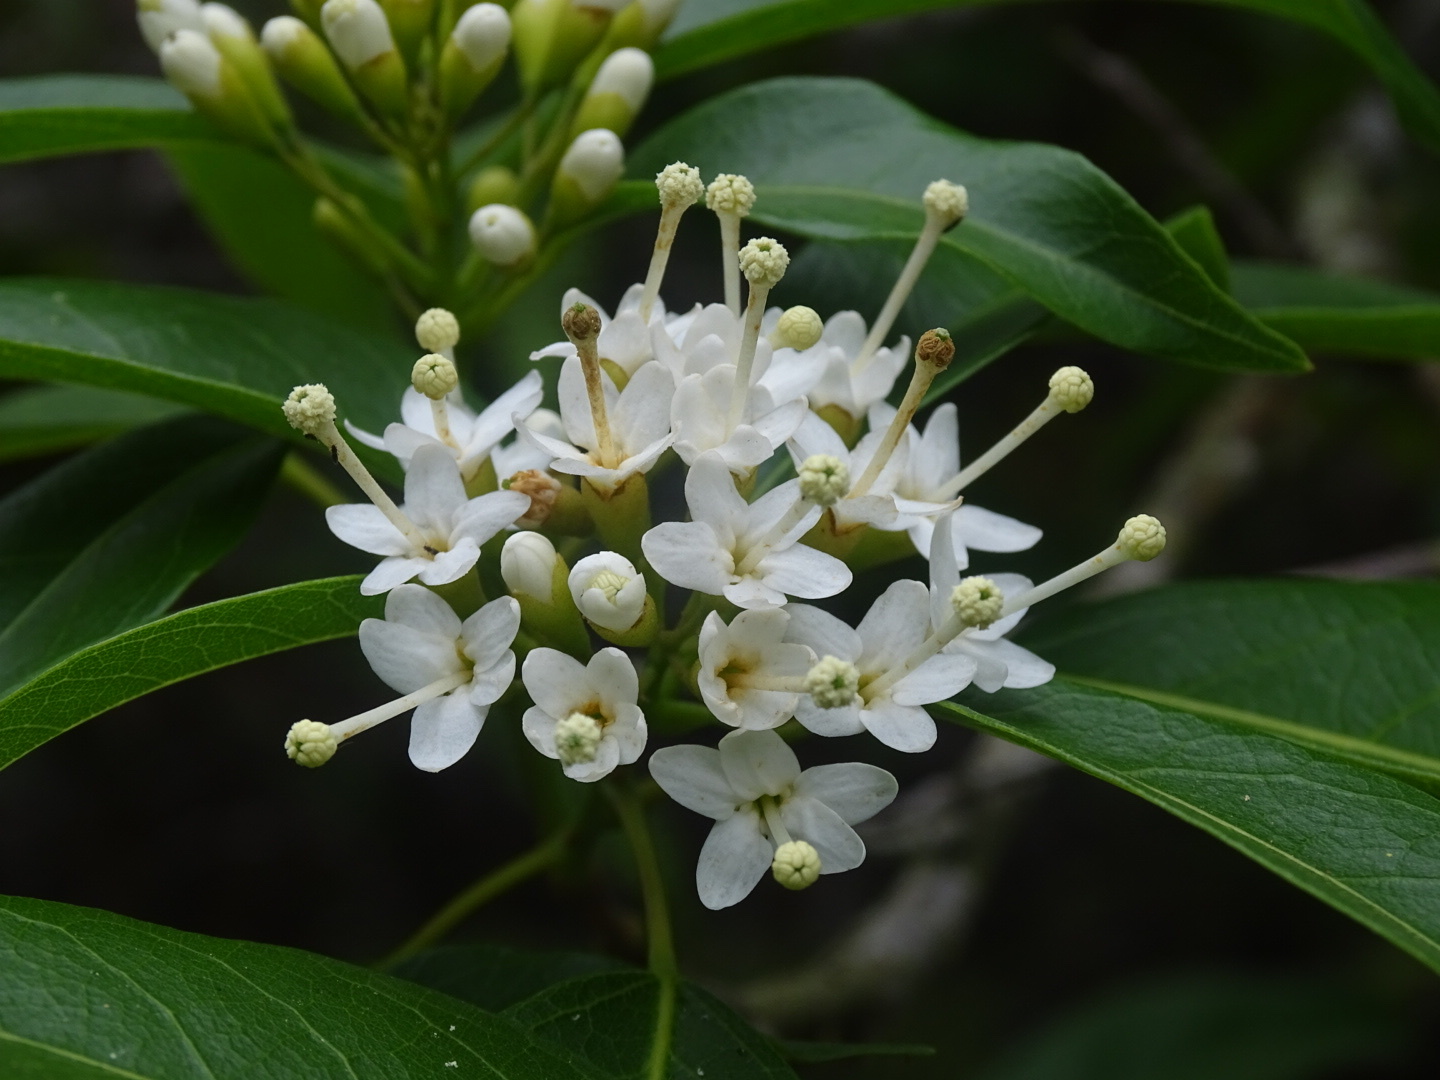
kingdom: Plantae
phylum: Tracheophyta
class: Magnoliopsida
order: Malvales
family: Malvaceae
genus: Reevesia
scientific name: Reevesia thyrsoidea
